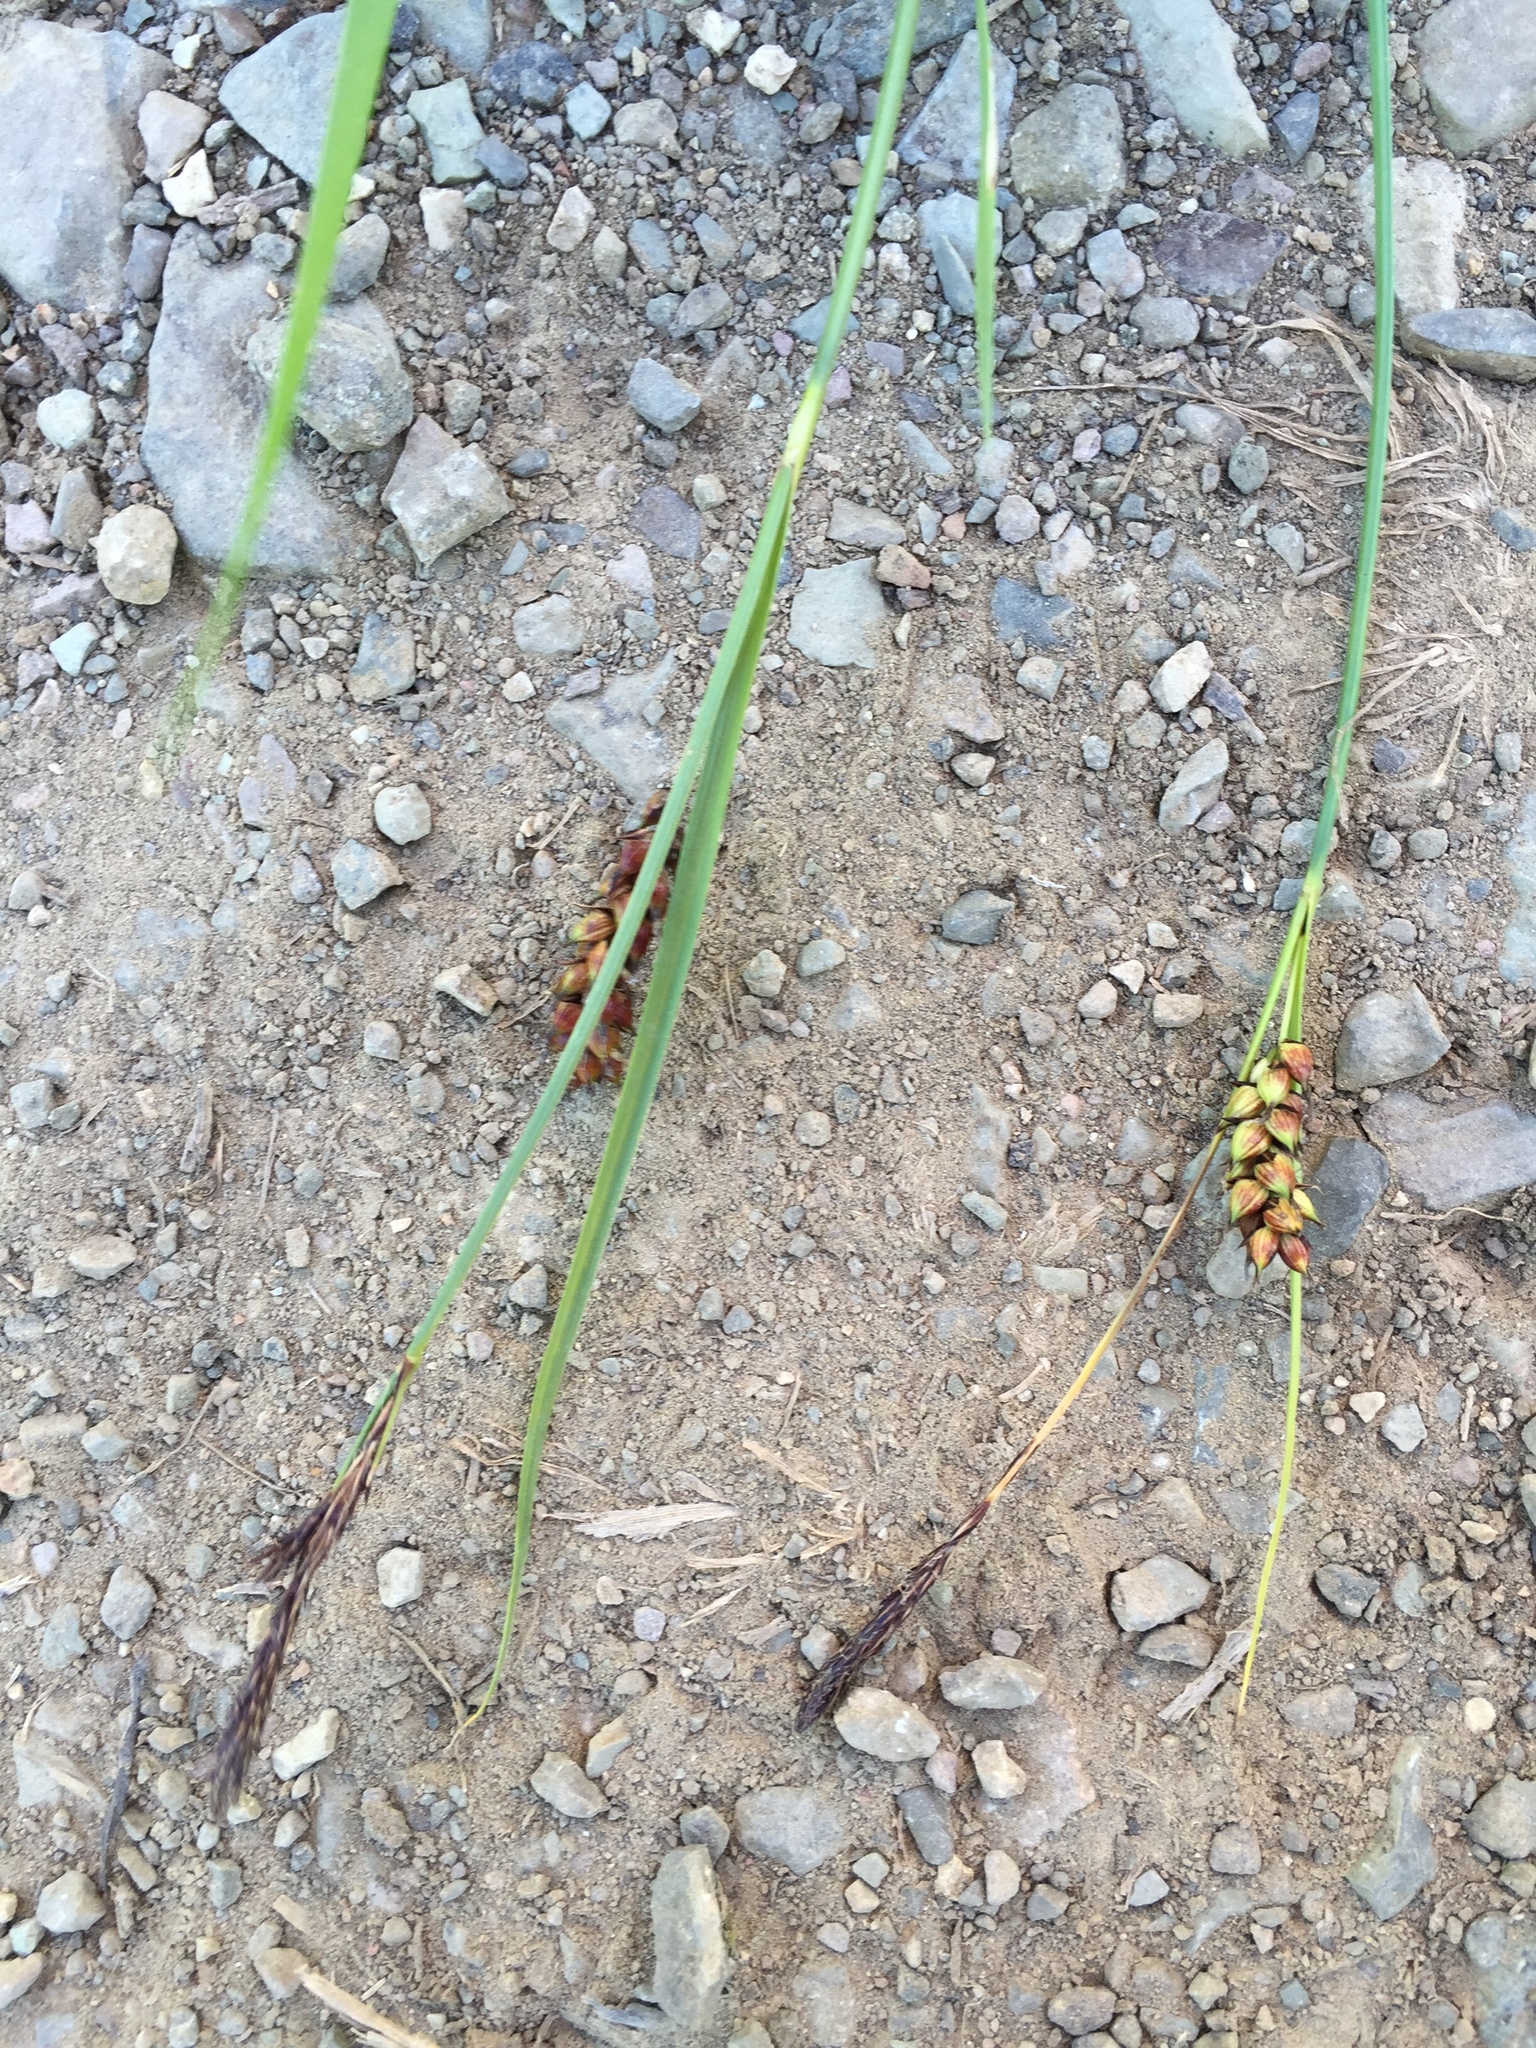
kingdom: Plantae
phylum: Tracheophyta
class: Liliopsida
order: Poales
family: Cyperaceae
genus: Carex
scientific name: Carex melanostachya
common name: Black-spiked sedge
